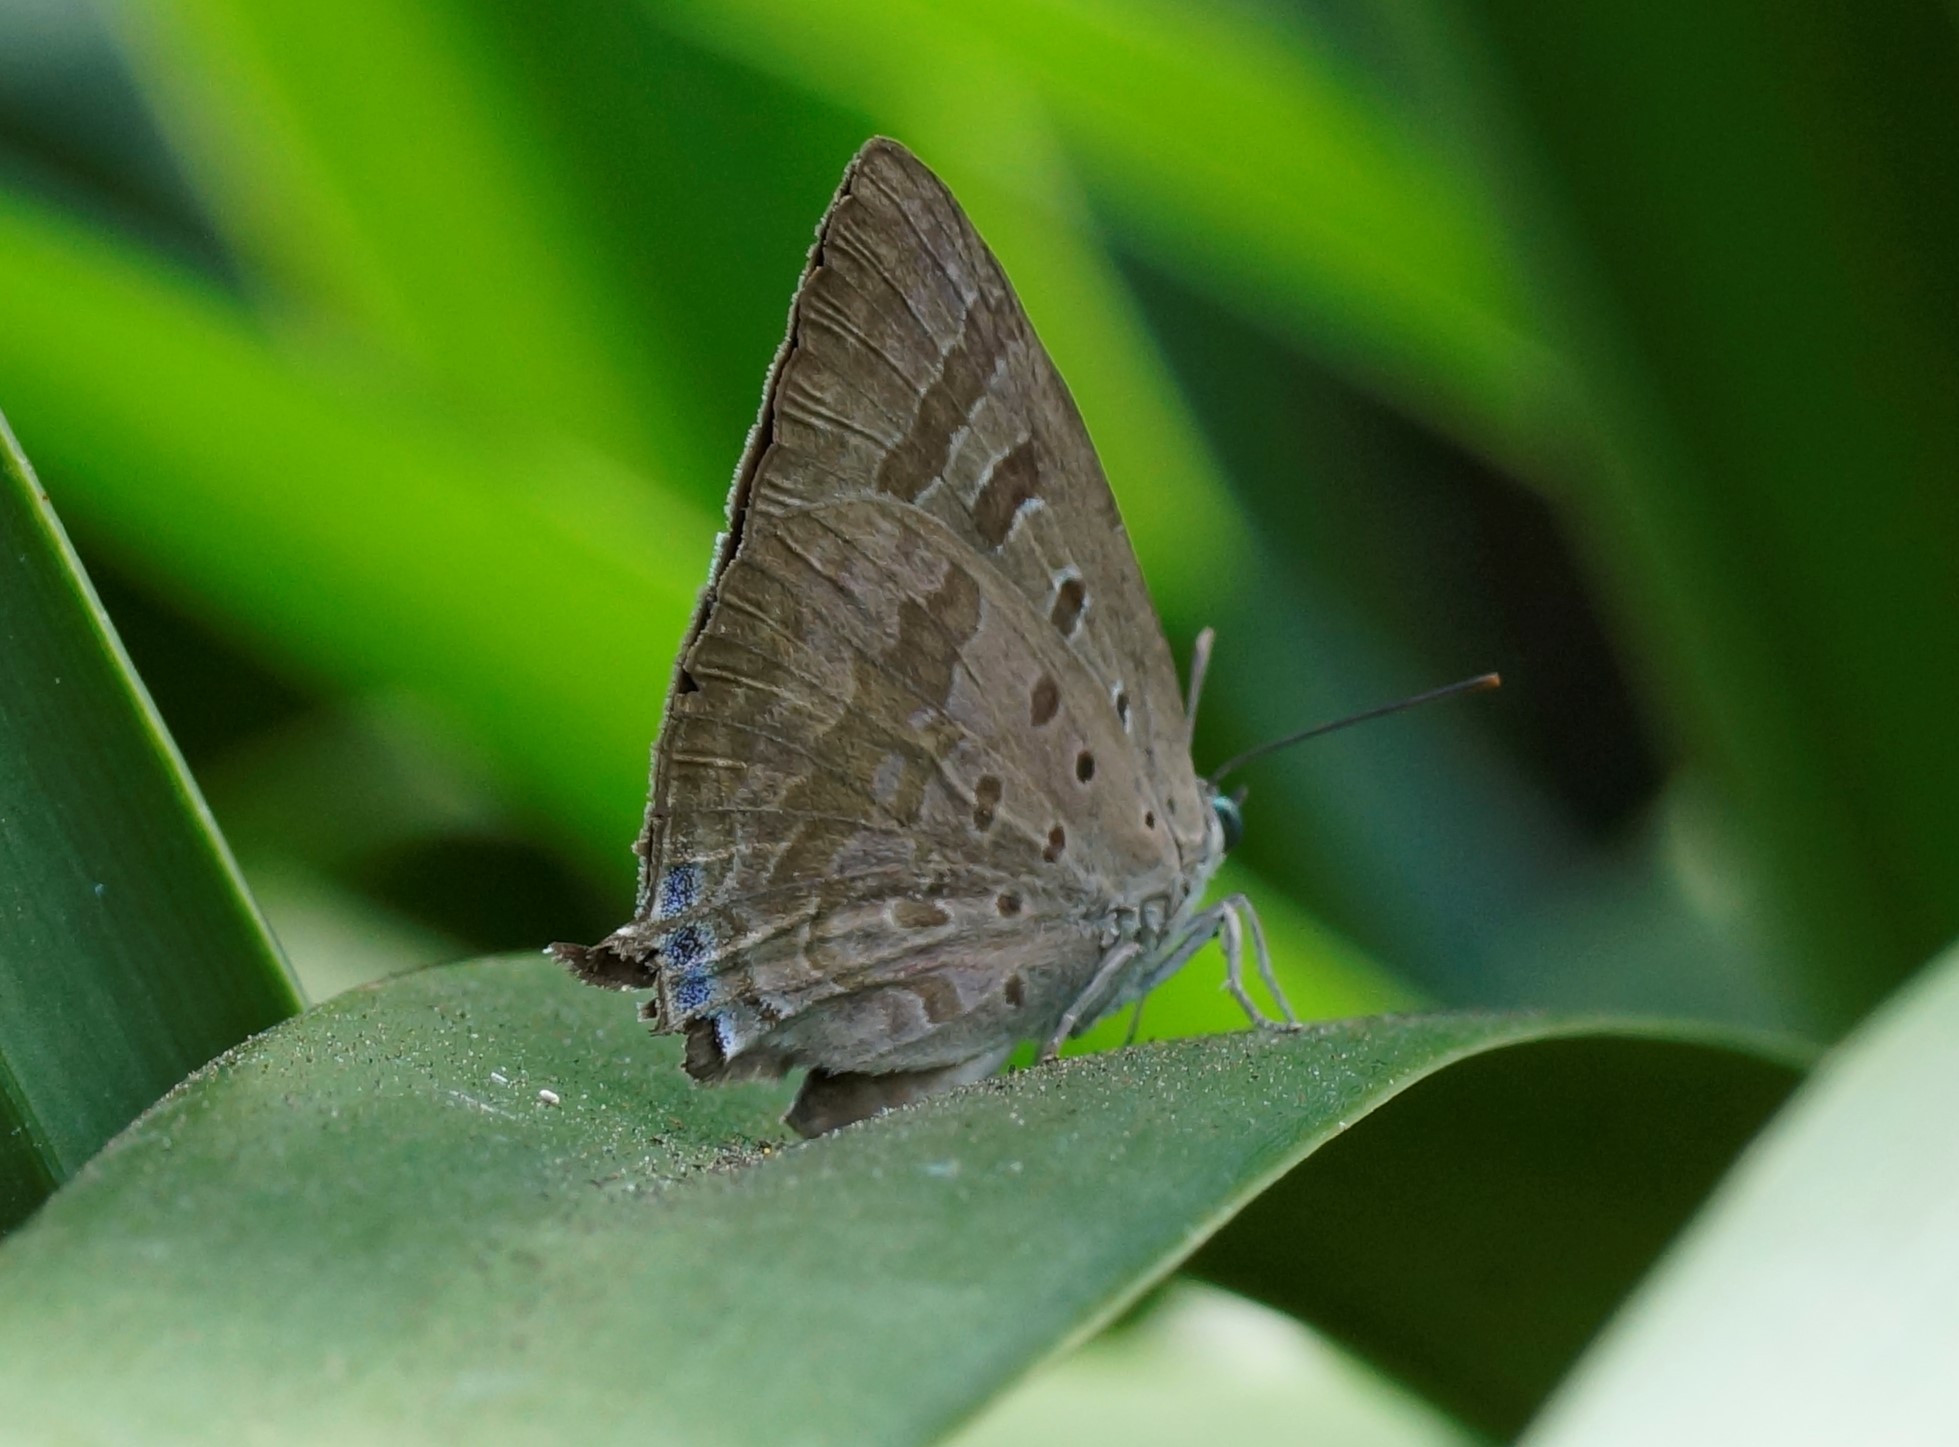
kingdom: Animalia
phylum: Arthropoda
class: Insecta
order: Lepidoptera
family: Lycaenidae
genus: Arhopala
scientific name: Arhopala
